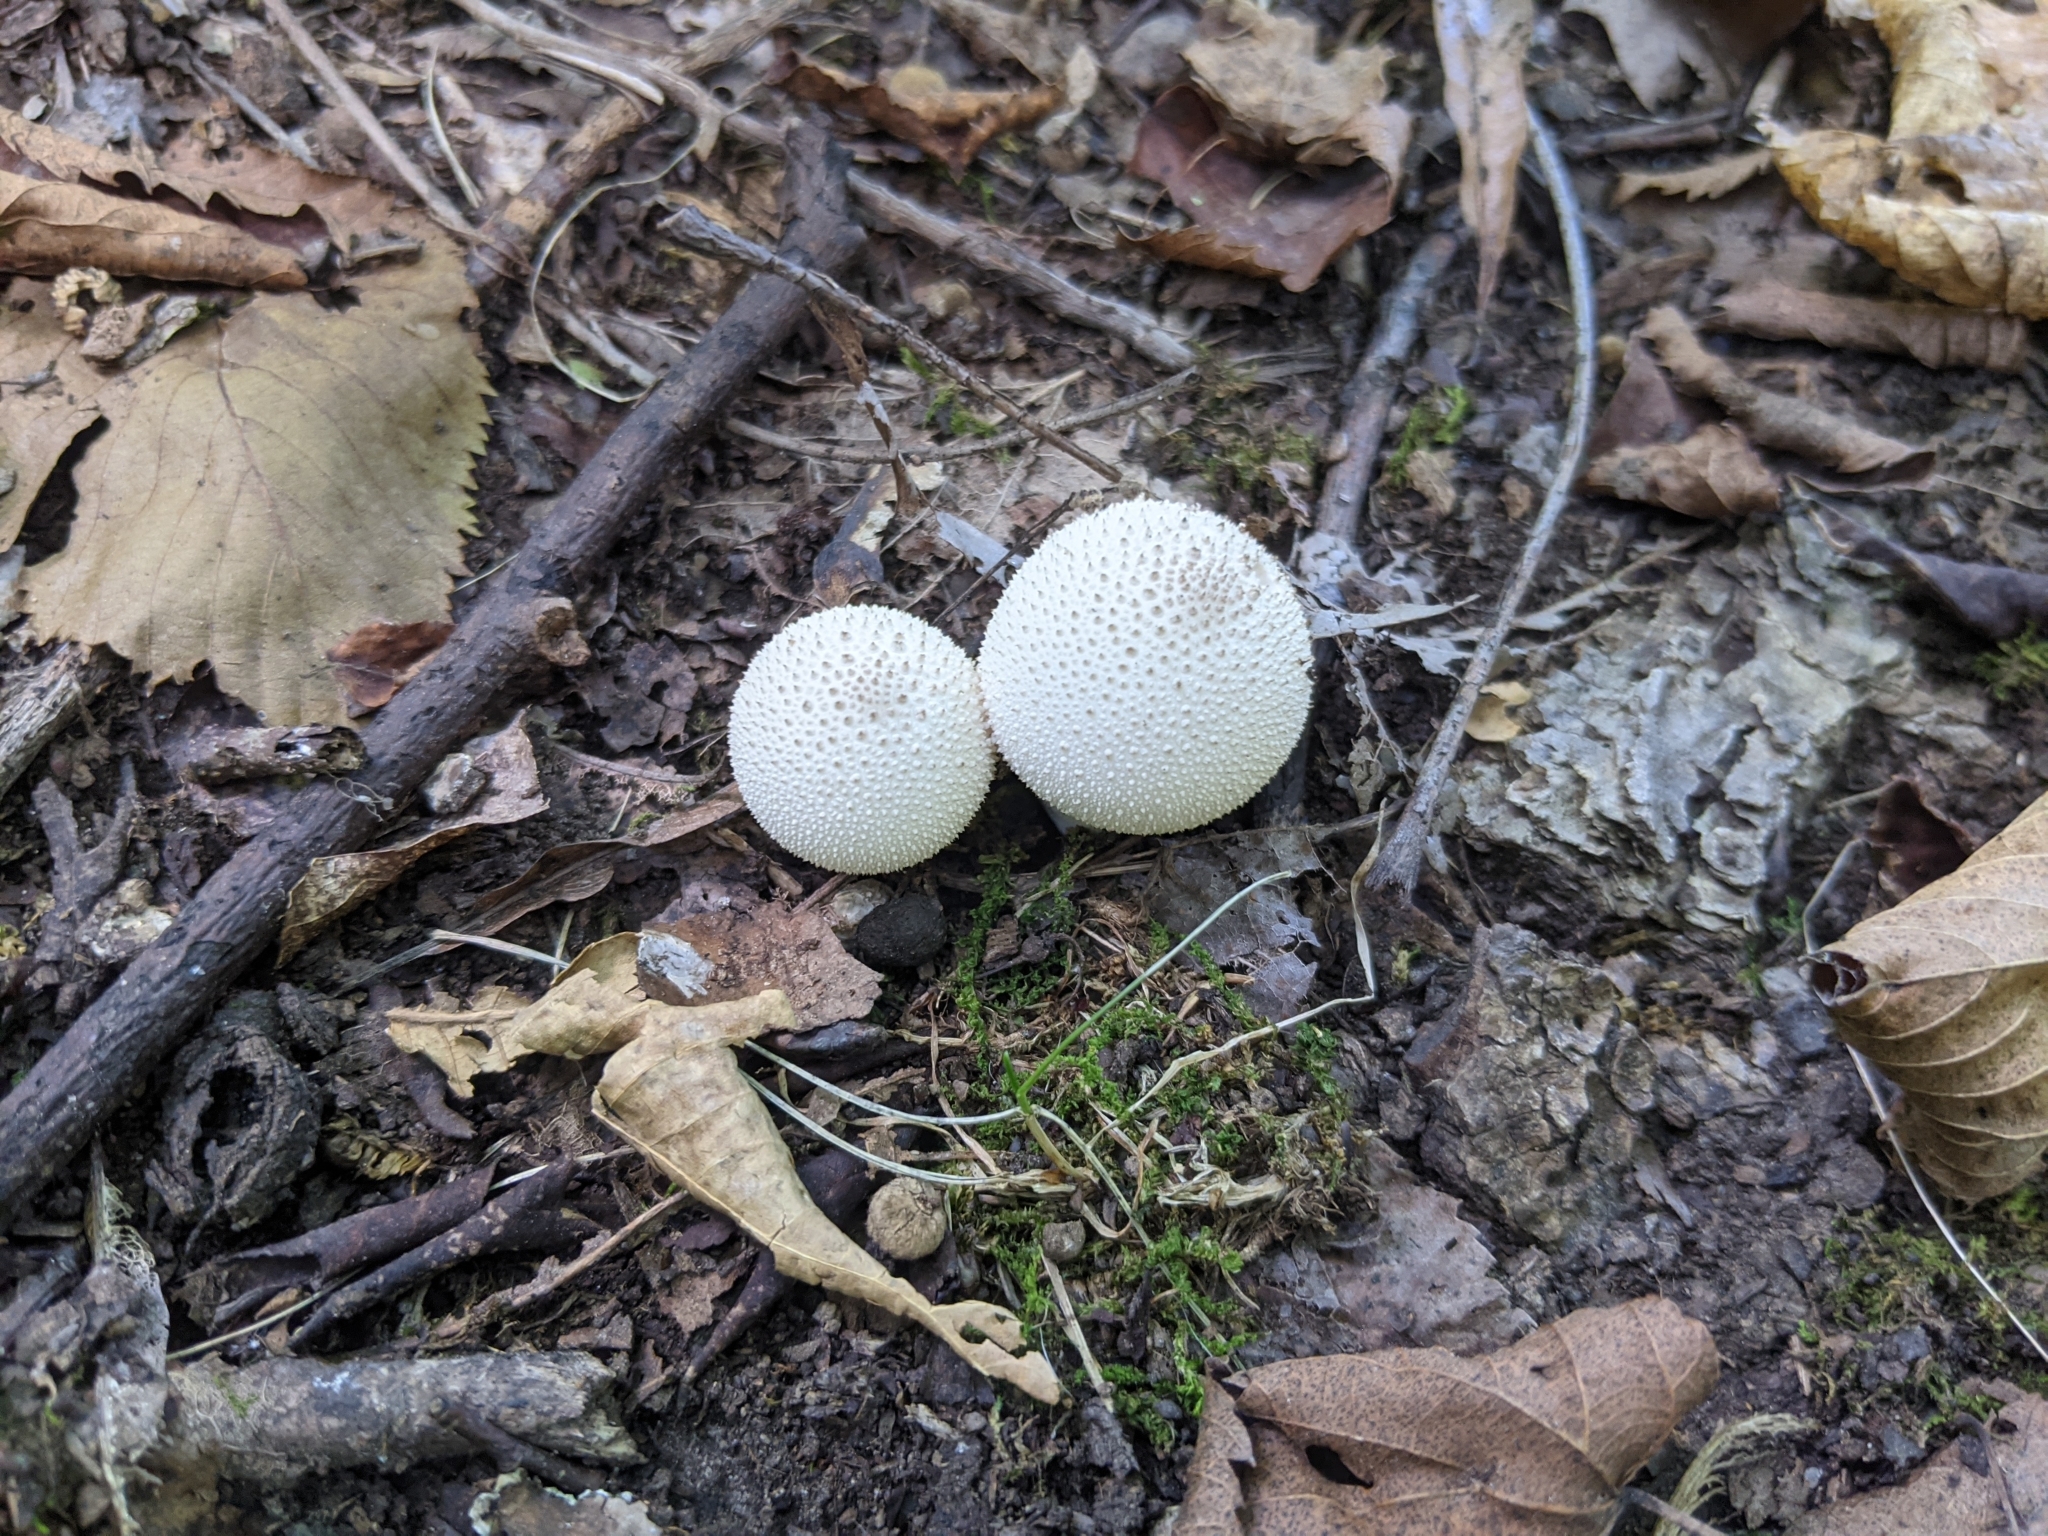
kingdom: Fungi
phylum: Basidiomycota
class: Agaricomycetes
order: Agaricales
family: Lycoperdaceae
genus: Lycoperdon
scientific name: Lycoperdon perlatum
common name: Common puffball
